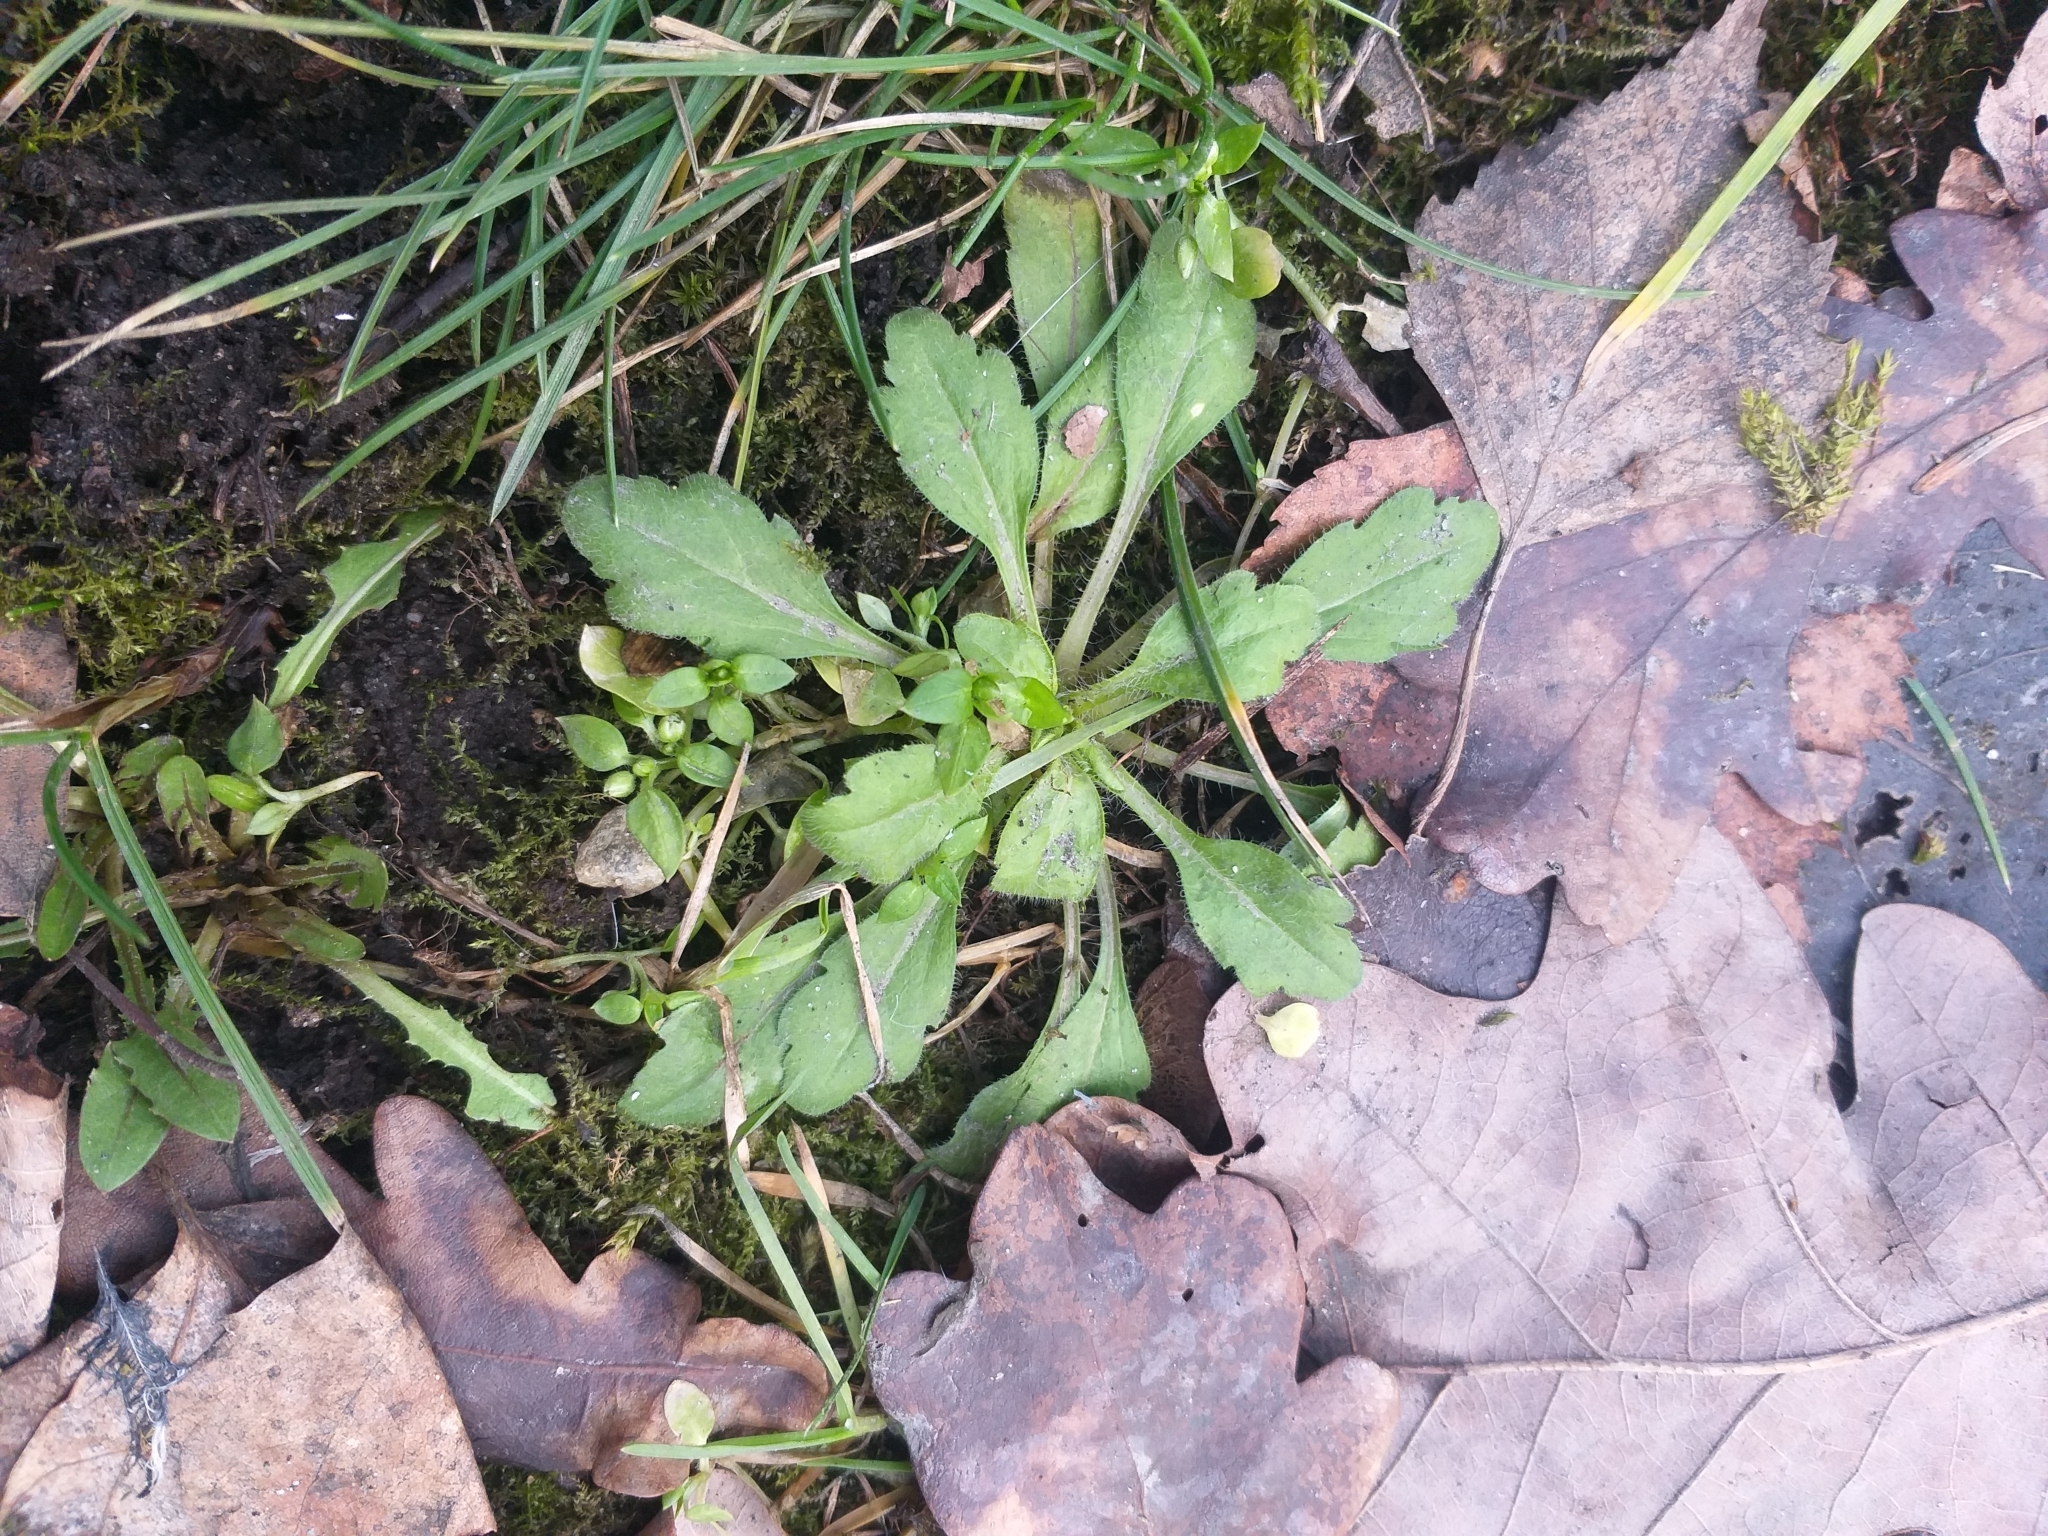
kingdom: Plantae
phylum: Tracheophyta
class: Magnoliopsida
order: Asterales
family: Asteraceae
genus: Erigeron
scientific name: Erigeron canadensis
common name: Canadian fleabane
